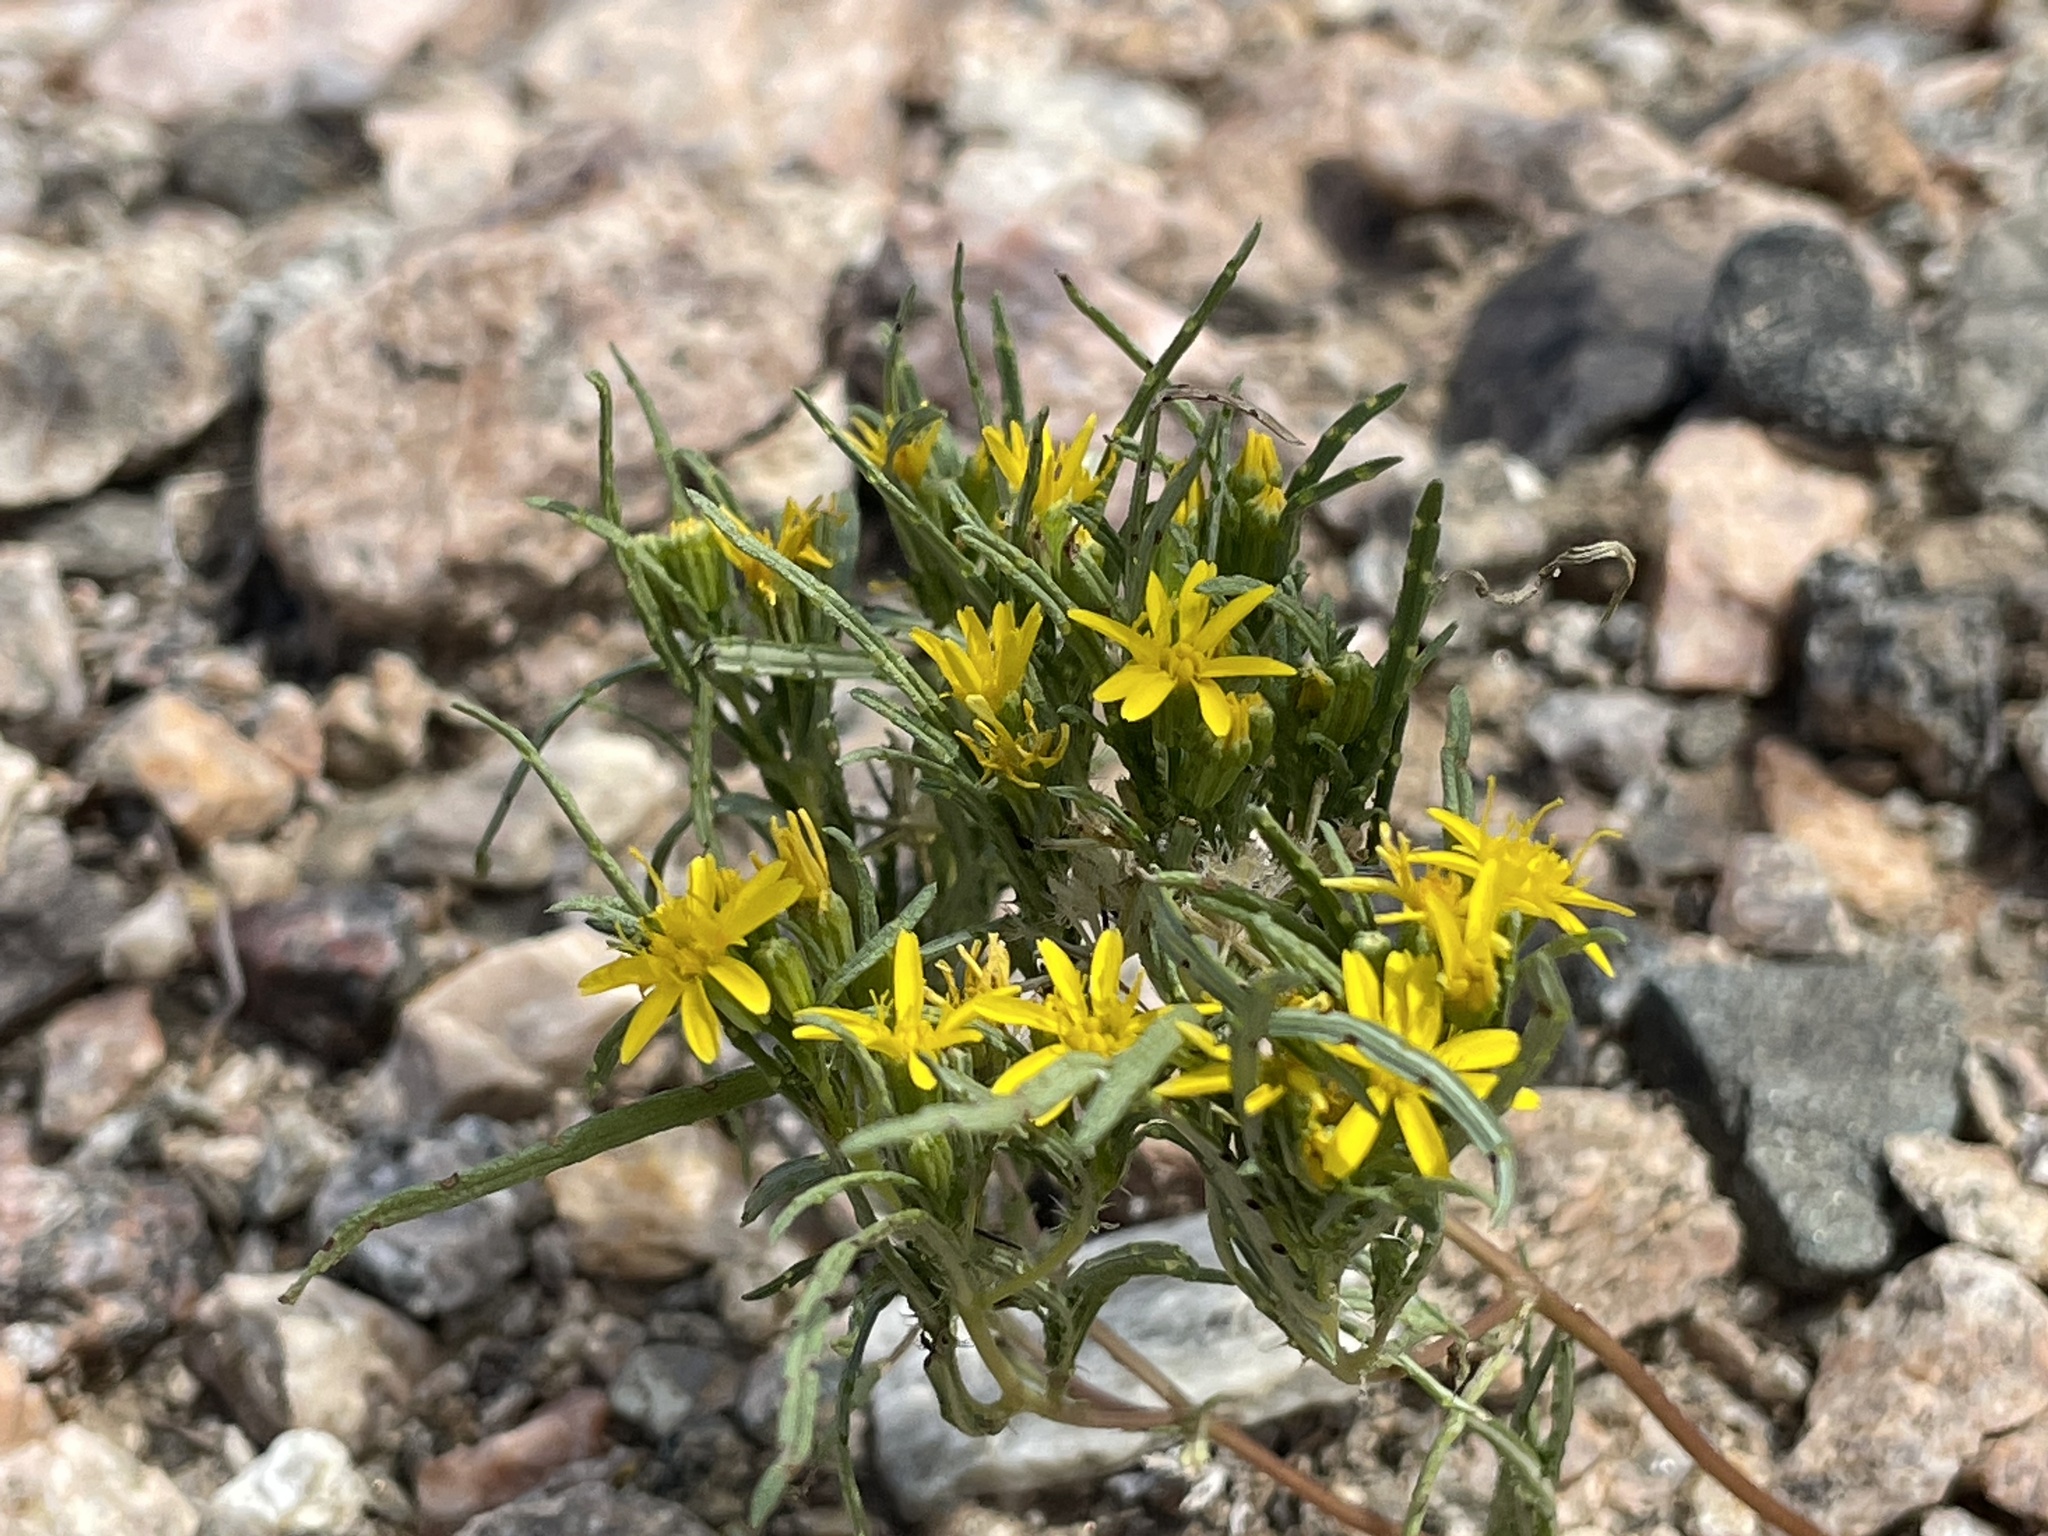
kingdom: Plantae
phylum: Tracheophyta
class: Magnoliopsida
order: Asterales
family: Asteraceae
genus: Pectis
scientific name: Pectis papposa
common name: Many-bristle chinchweed
